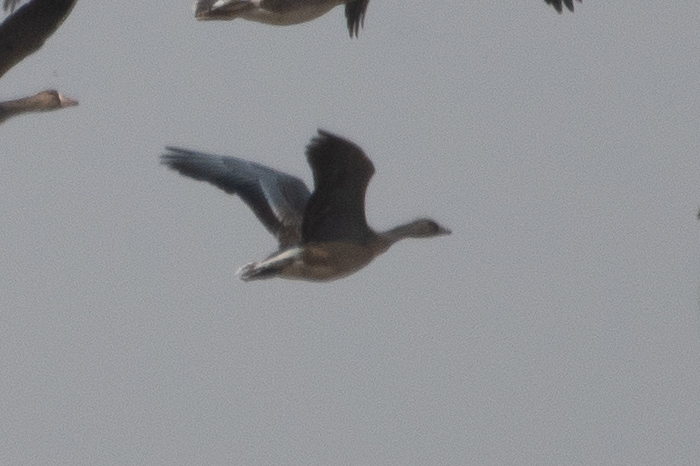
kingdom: Animalia
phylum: Chordata
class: Aves
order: Anseriformes
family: Anatidae
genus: Anser
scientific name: Anser albifrons
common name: Greater white-fronted goose
